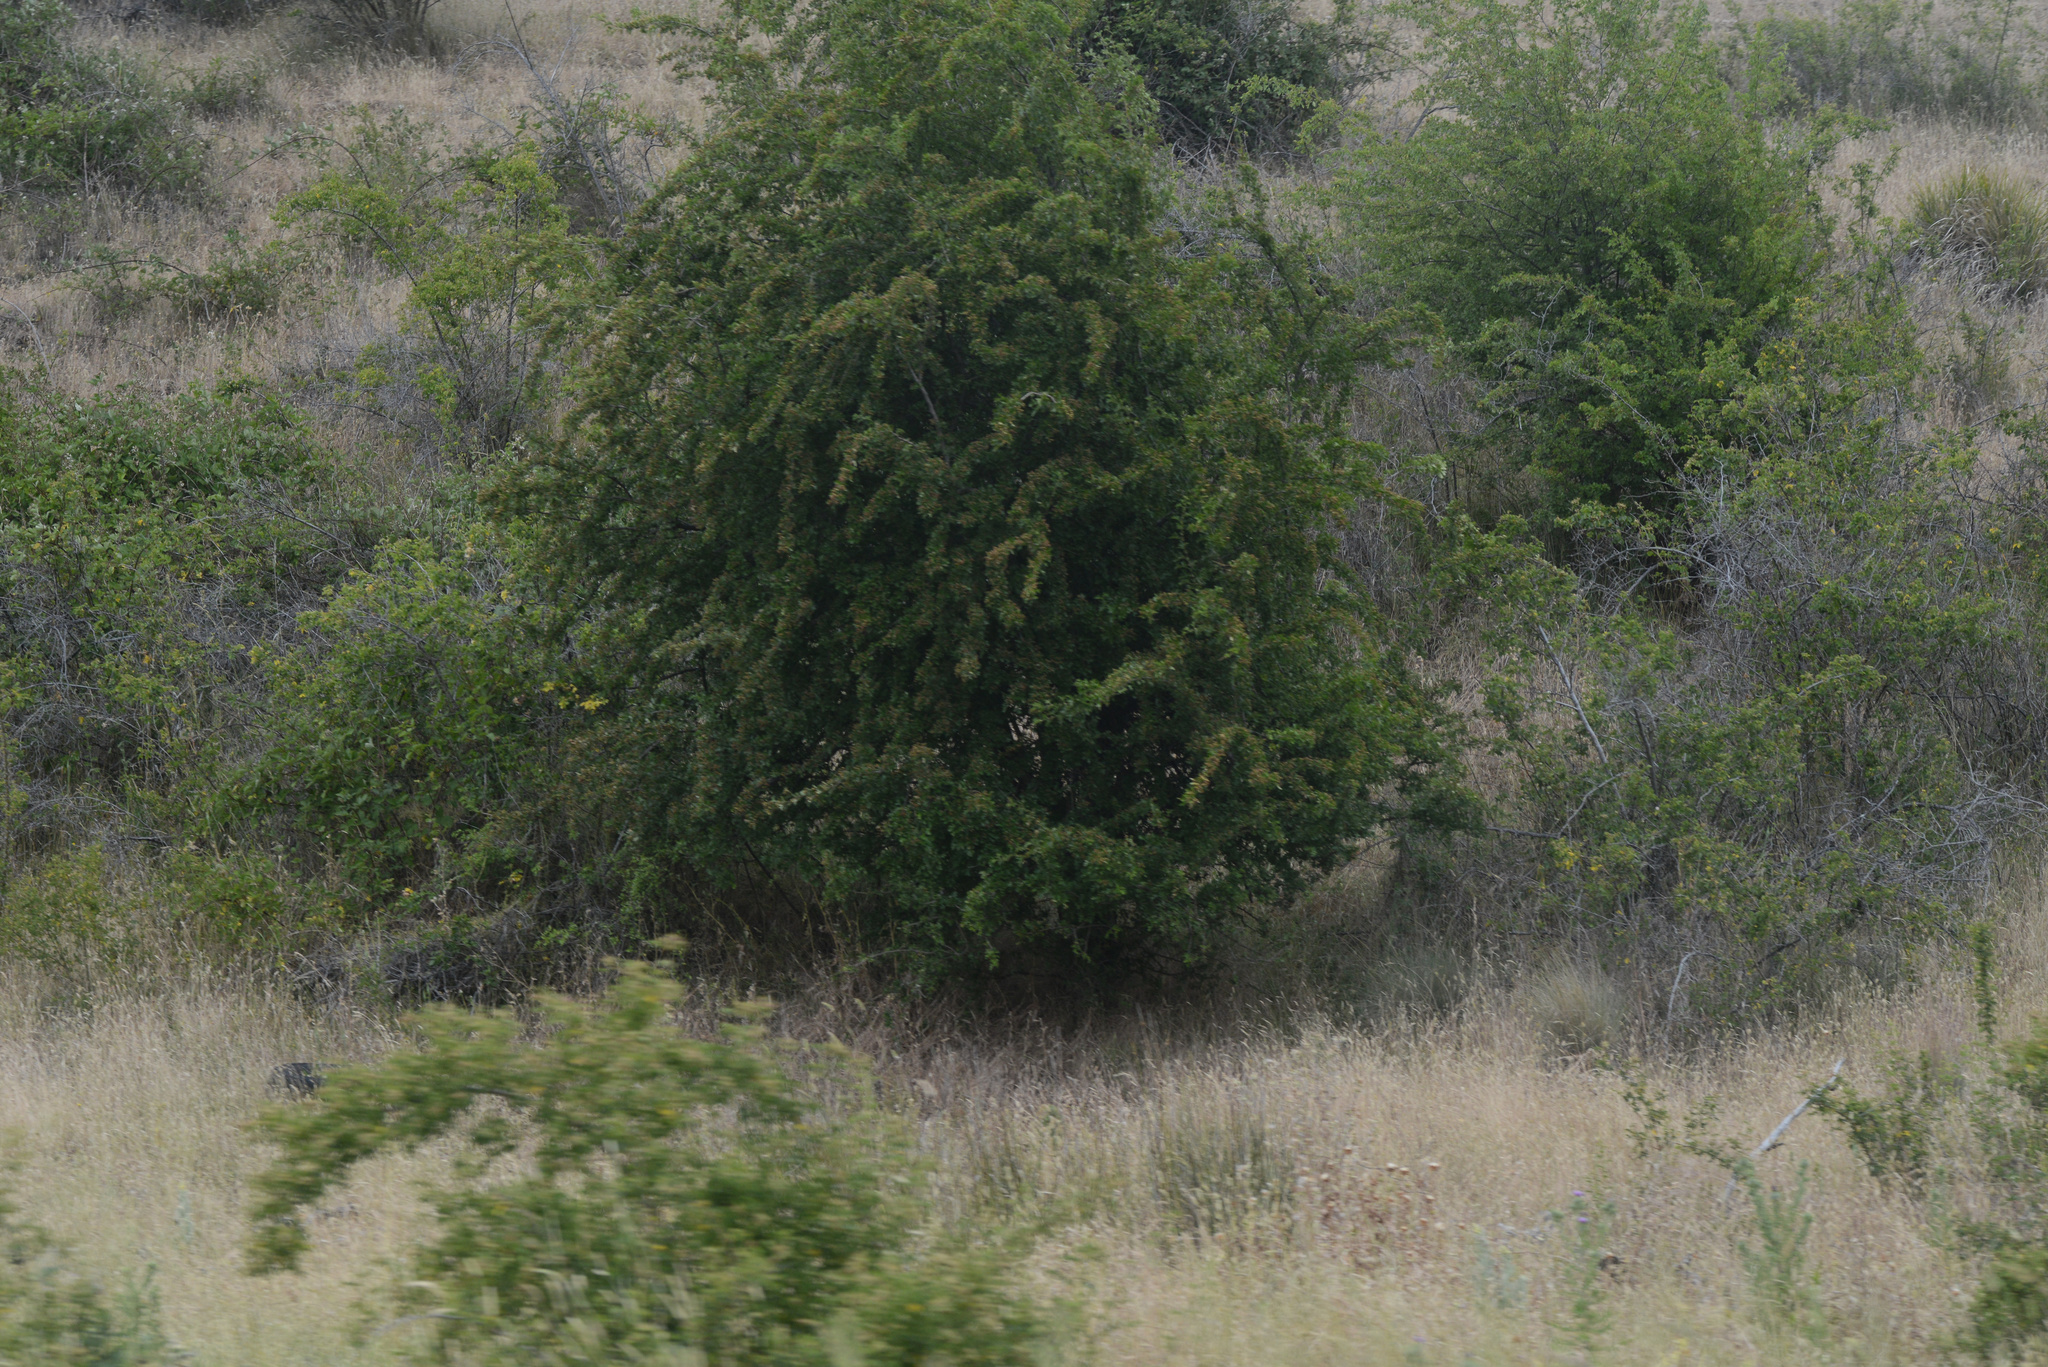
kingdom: Plantae
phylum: Tracheophyta
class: Magnoliopsida
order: Rosales
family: Rosaceae
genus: Crataegus
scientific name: Crataegus monogyna
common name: Hawthorn
